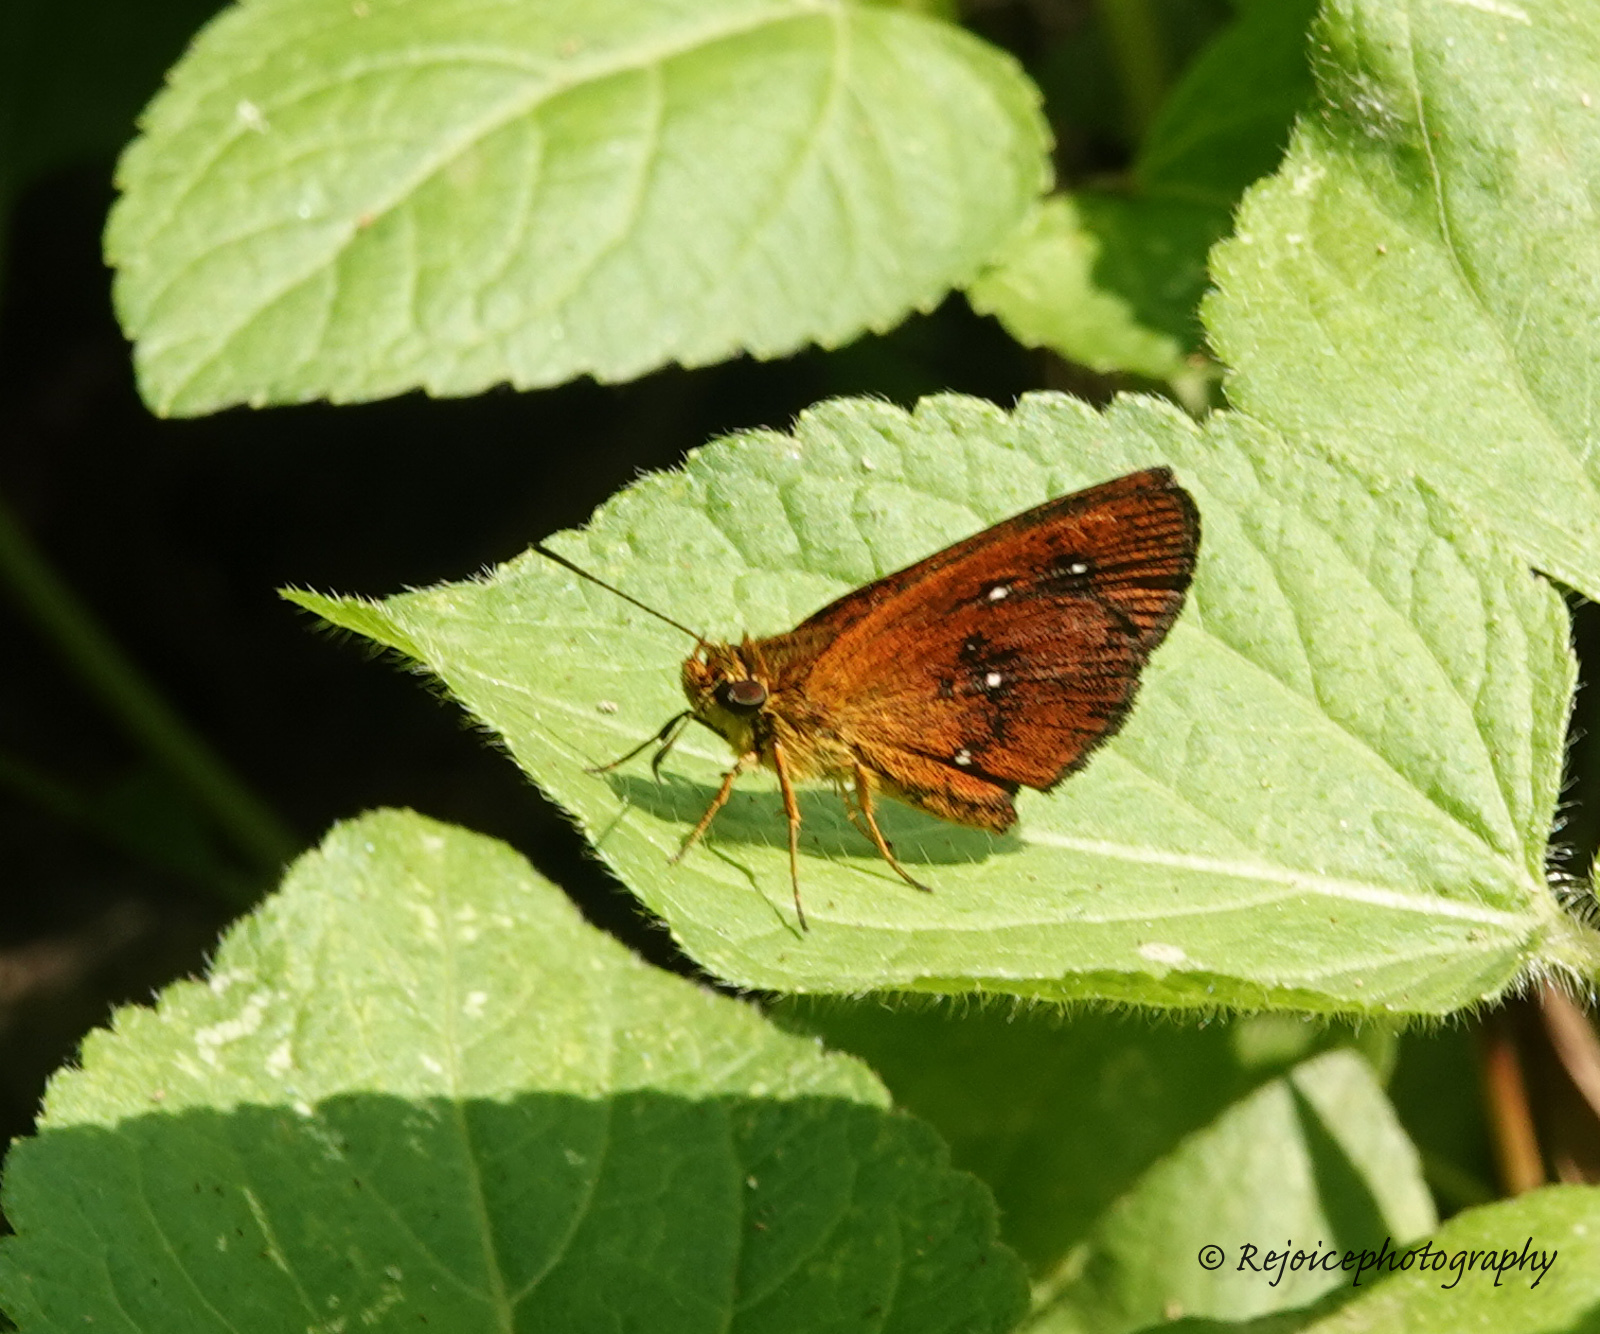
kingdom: Animalia
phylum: Arthropoda
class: Insecta
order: Lepidoptera
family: Hesperiidae
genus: Iambrix
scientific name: Iambrix salsala
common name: Chestnut bob
